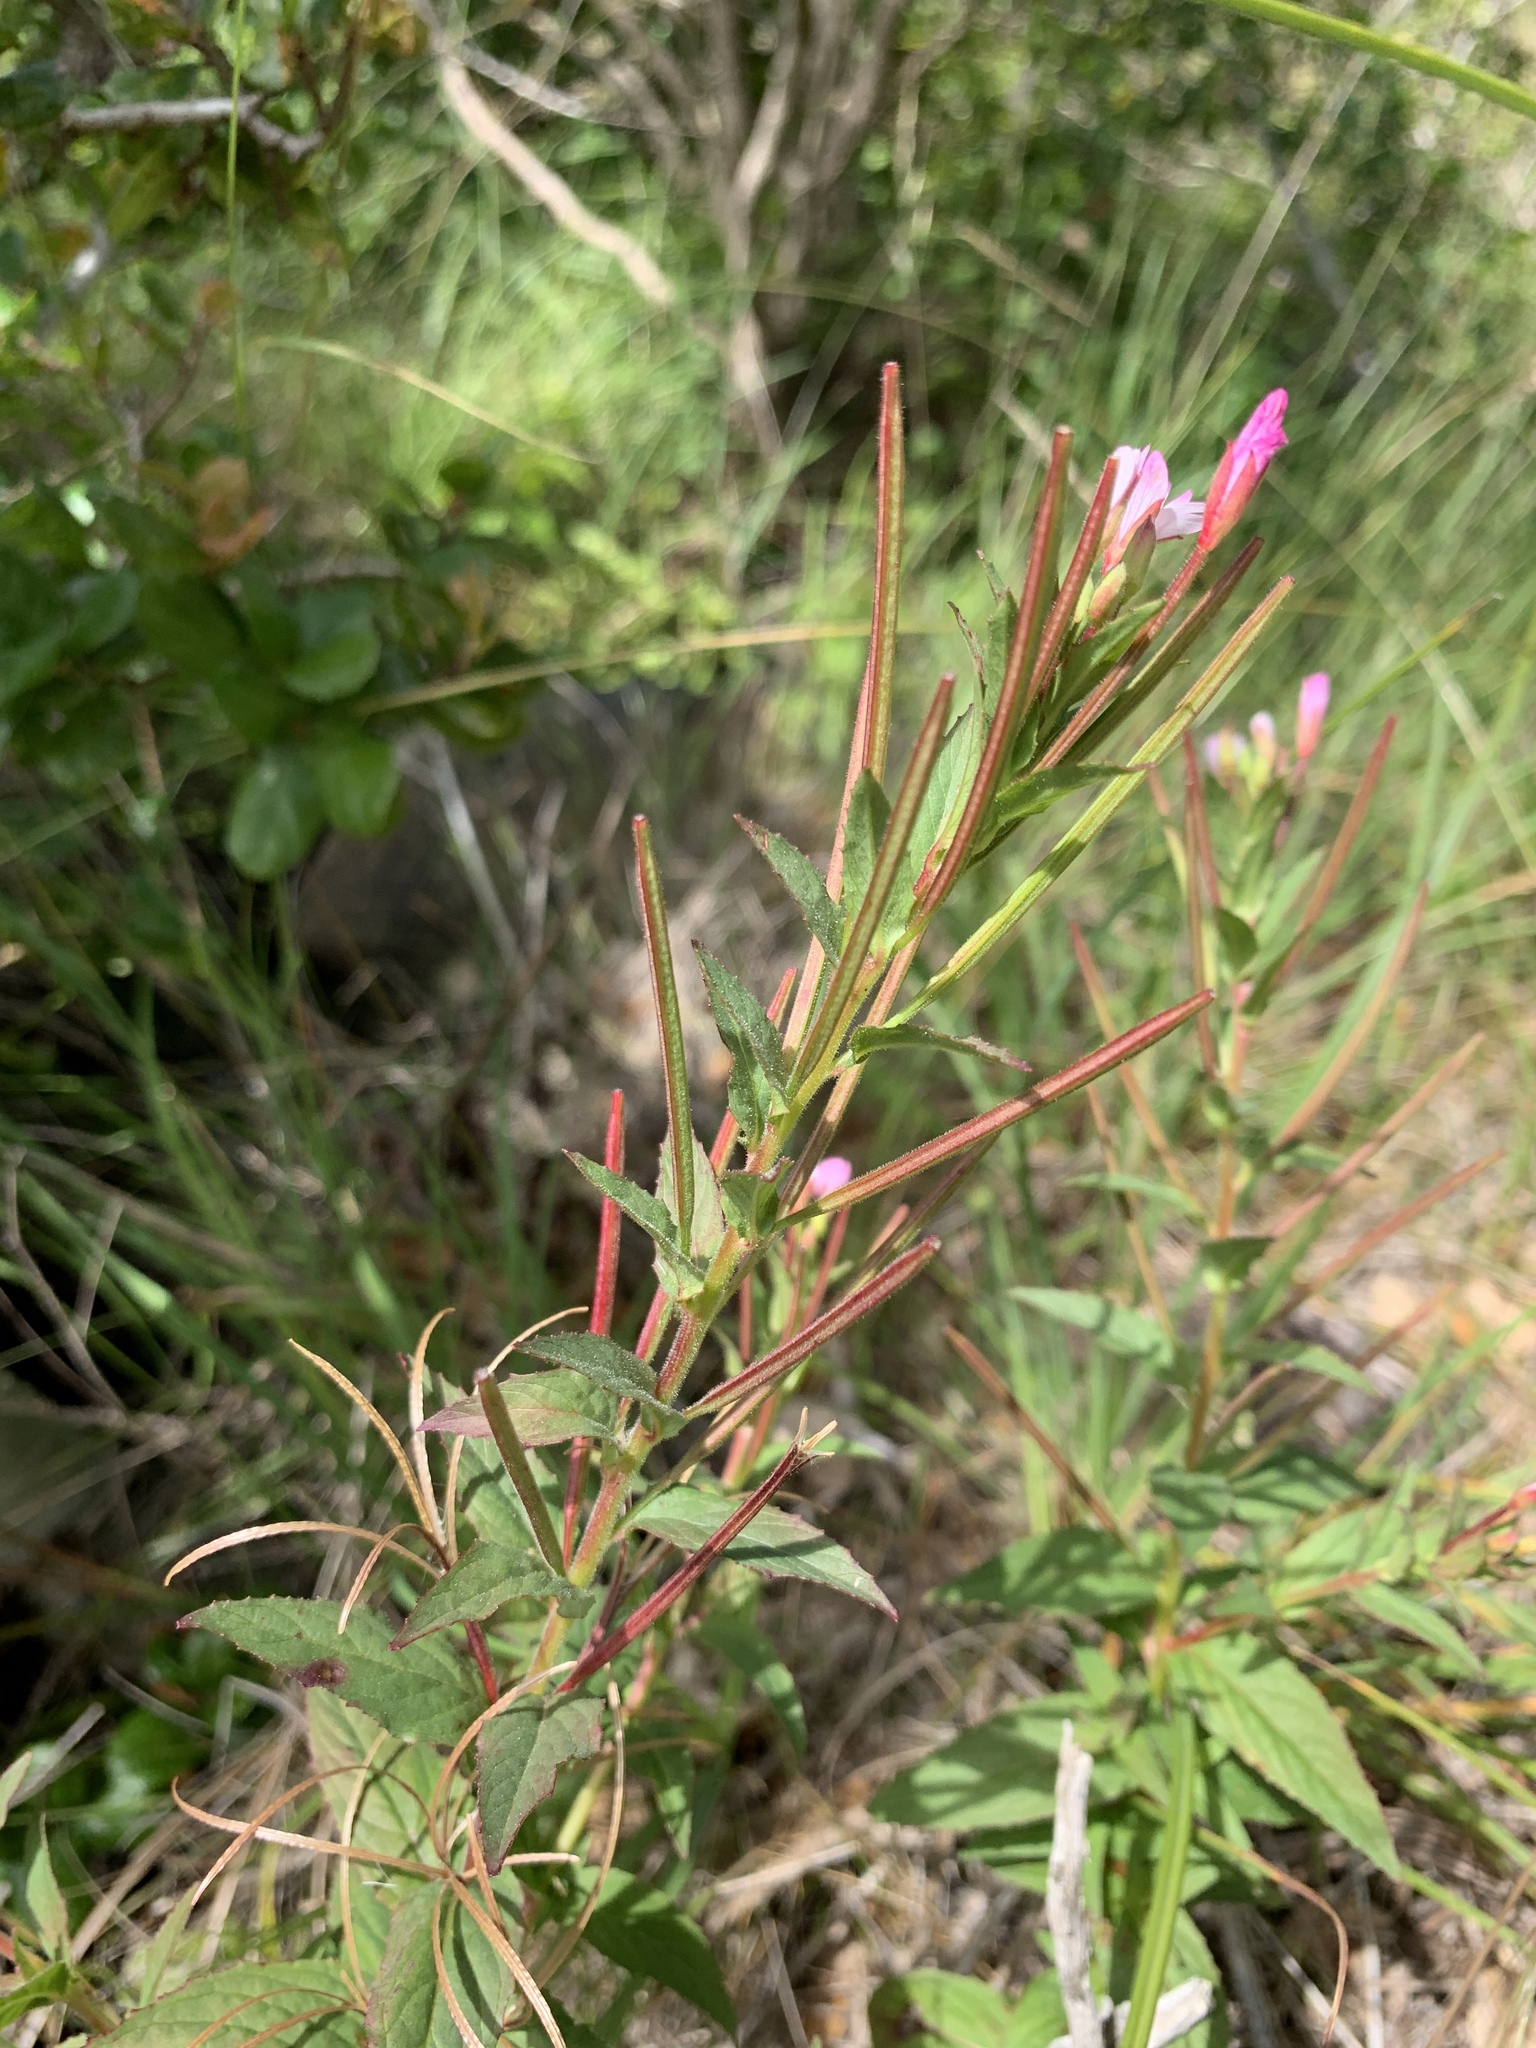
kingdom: Plantae
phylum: Tracheophyta
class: Magnoliopsida
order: Myrtales
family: Onagraceae
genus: Epilobium
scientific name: Epilobium ciliatum
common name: American willowherb
